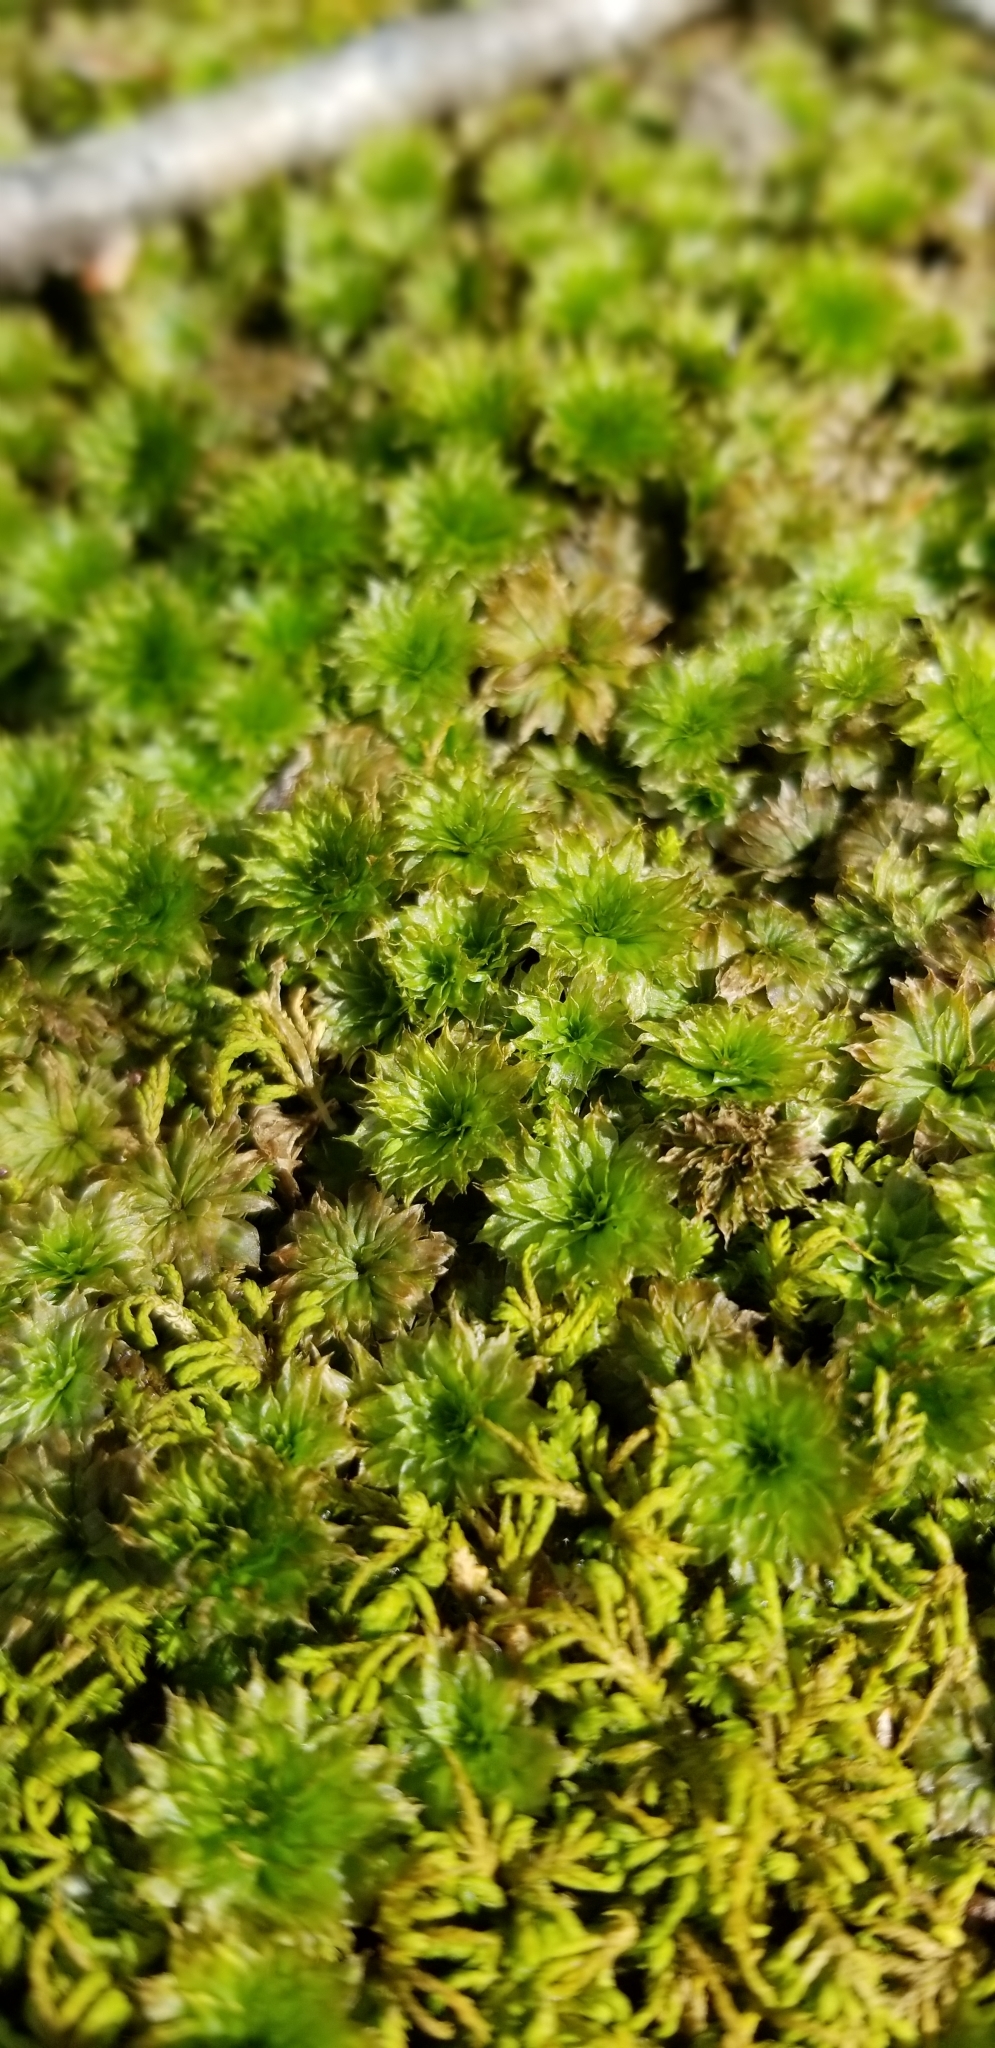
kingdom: Plantae
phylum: Bryophyta
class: Bryopsida
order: Bryales
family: Bryaceae
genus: Rhodobryum
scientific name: Rhodobryum ontariense
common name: Ontario rhodobryum moss
